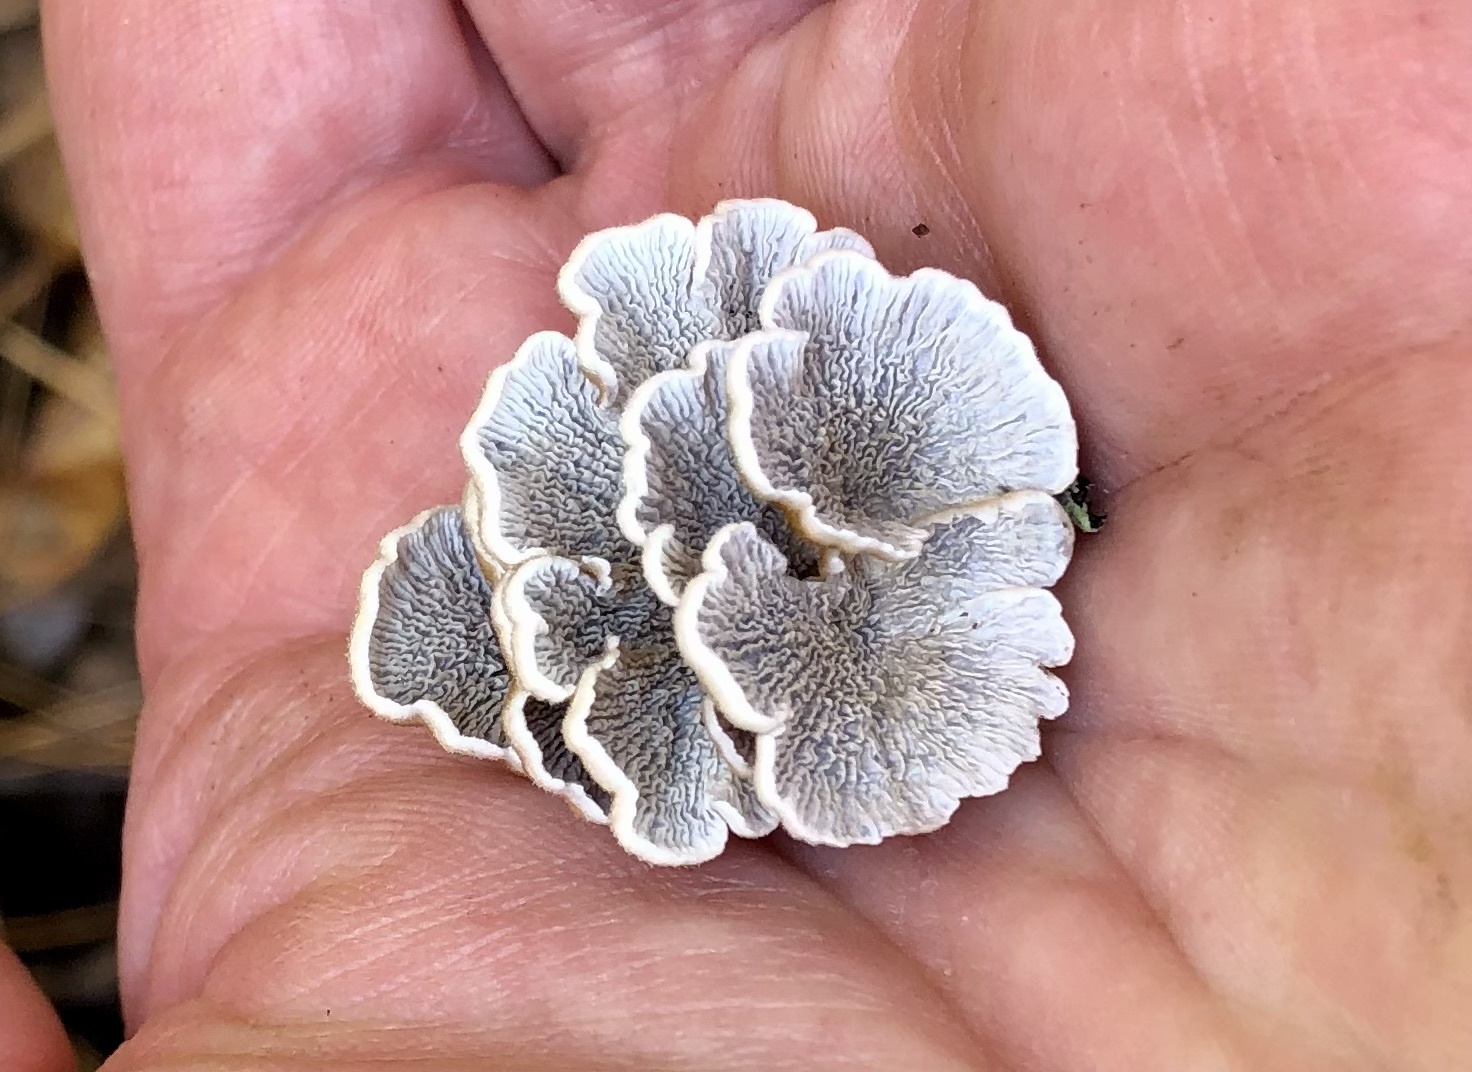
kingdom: Fungi
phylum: Basidiomycota
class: Agaricomycetes
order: Amylocorticiales
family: Amylocorticiaceae
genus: Plicaturopsis
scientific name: Plicaturopsis crispa
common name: Crimped gill
